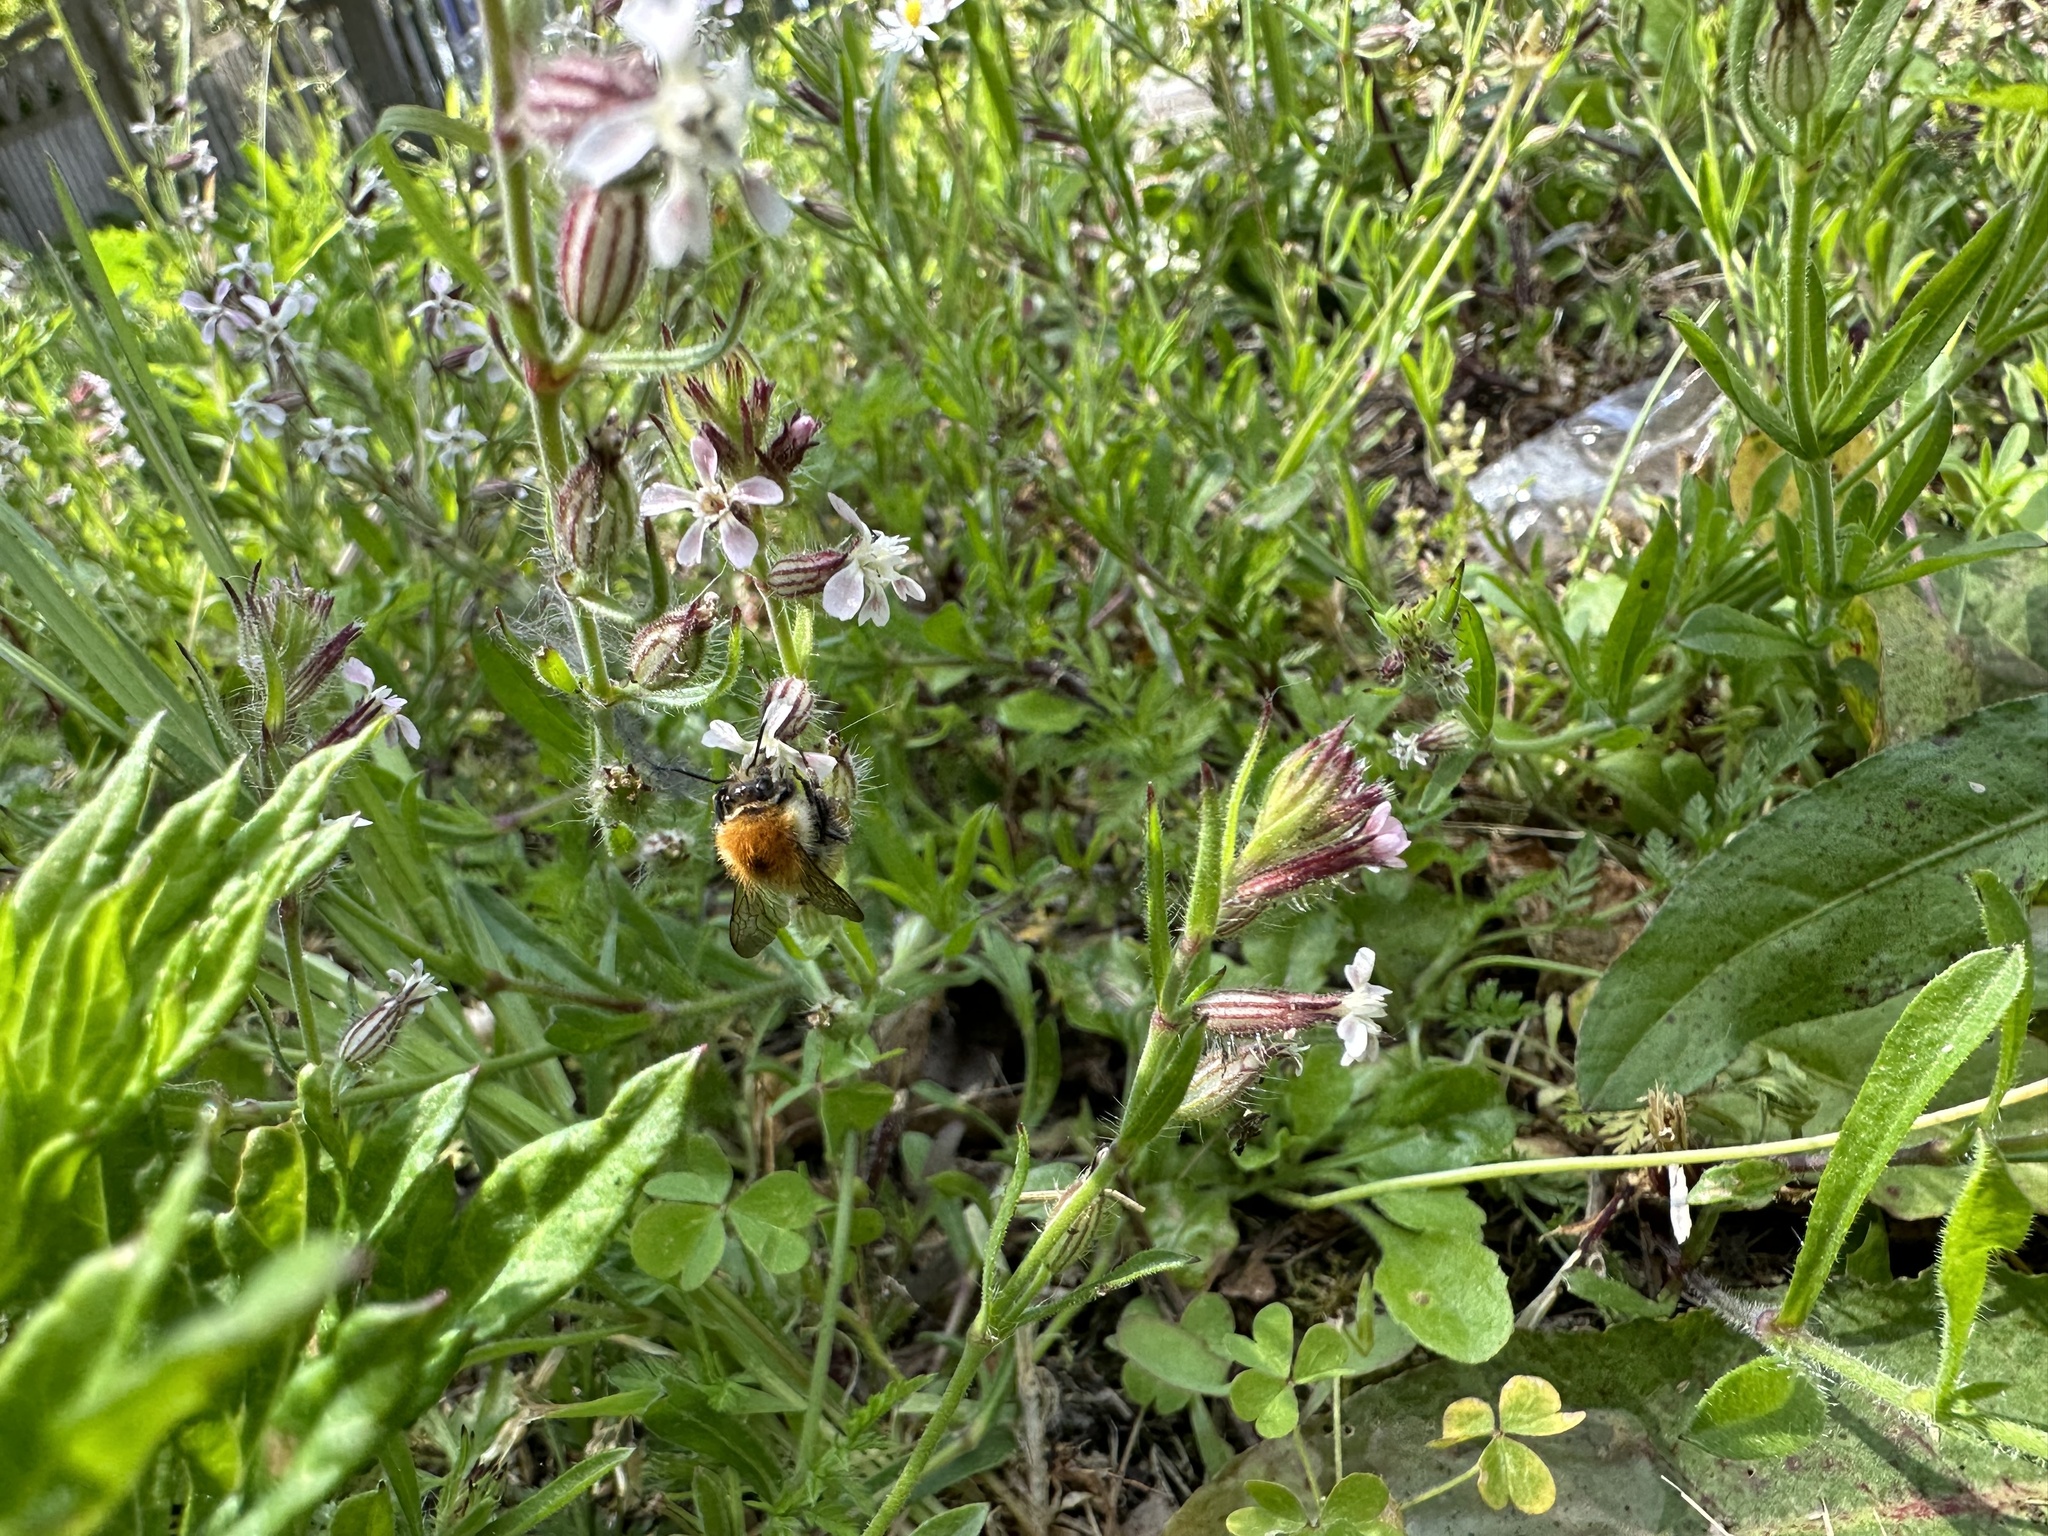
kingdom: Animalia
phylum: Arthropoda
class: Insecta
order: Hymenoptera
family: Apidae
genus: Bombus
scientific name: Bombus pascuorum
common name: Common carder bee
